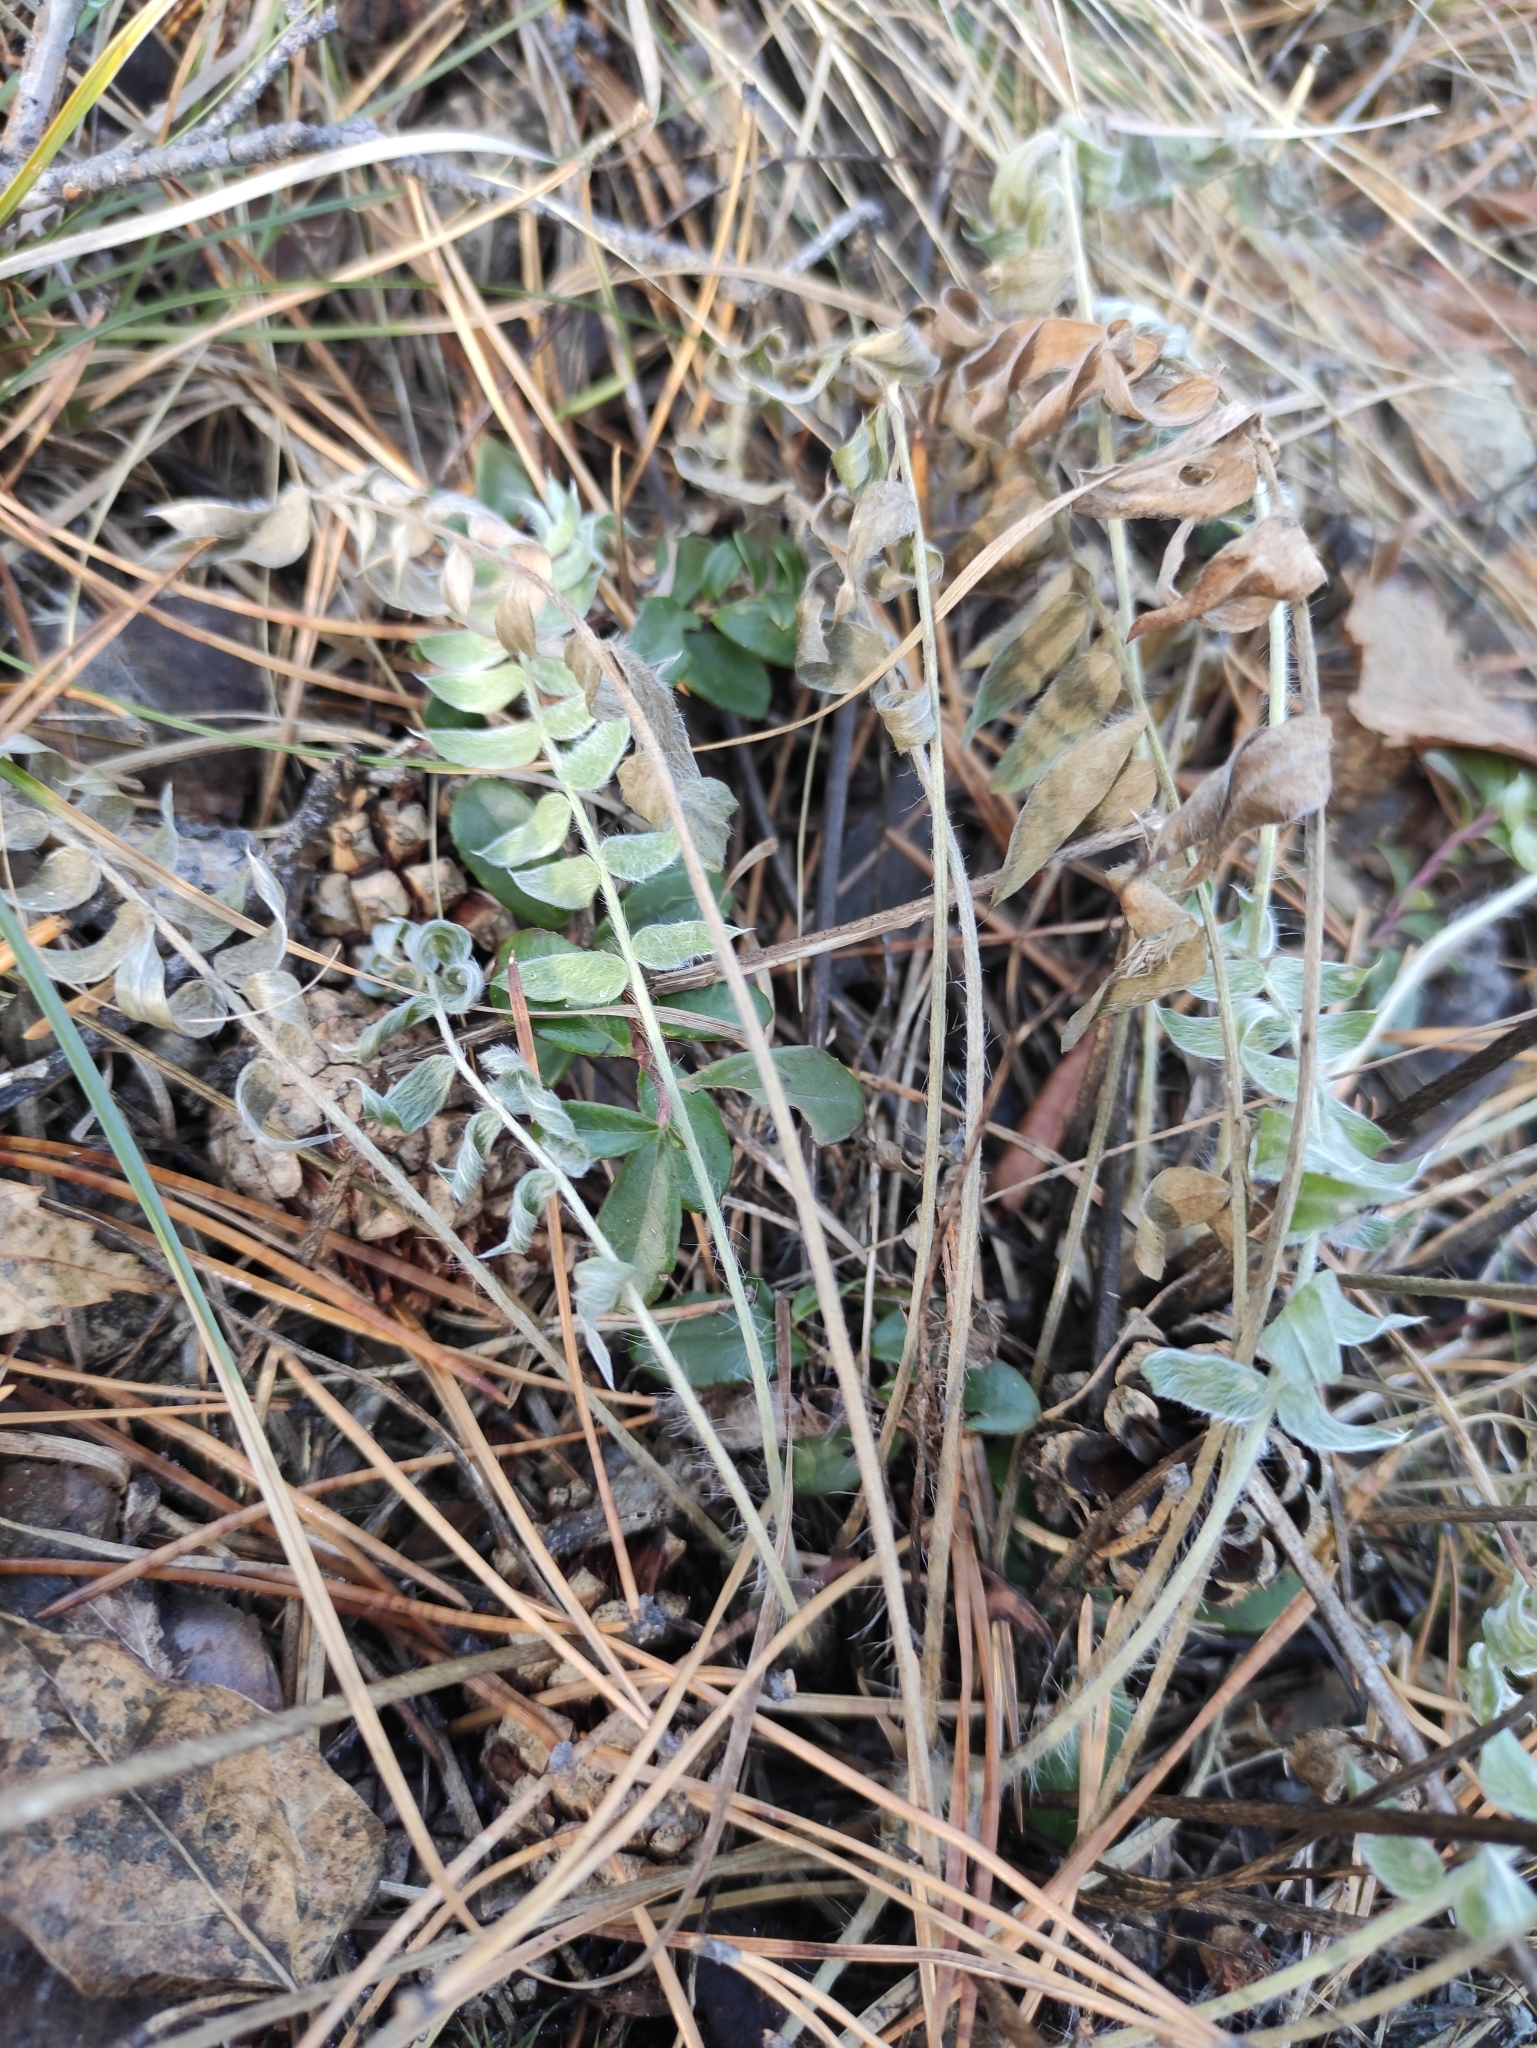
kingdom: Plantae
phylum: Tracheophyta
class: Magnoliopsida
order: Fabales
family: Fabaceae
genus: Oxytropis
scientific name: Oxytropis strobilacea
